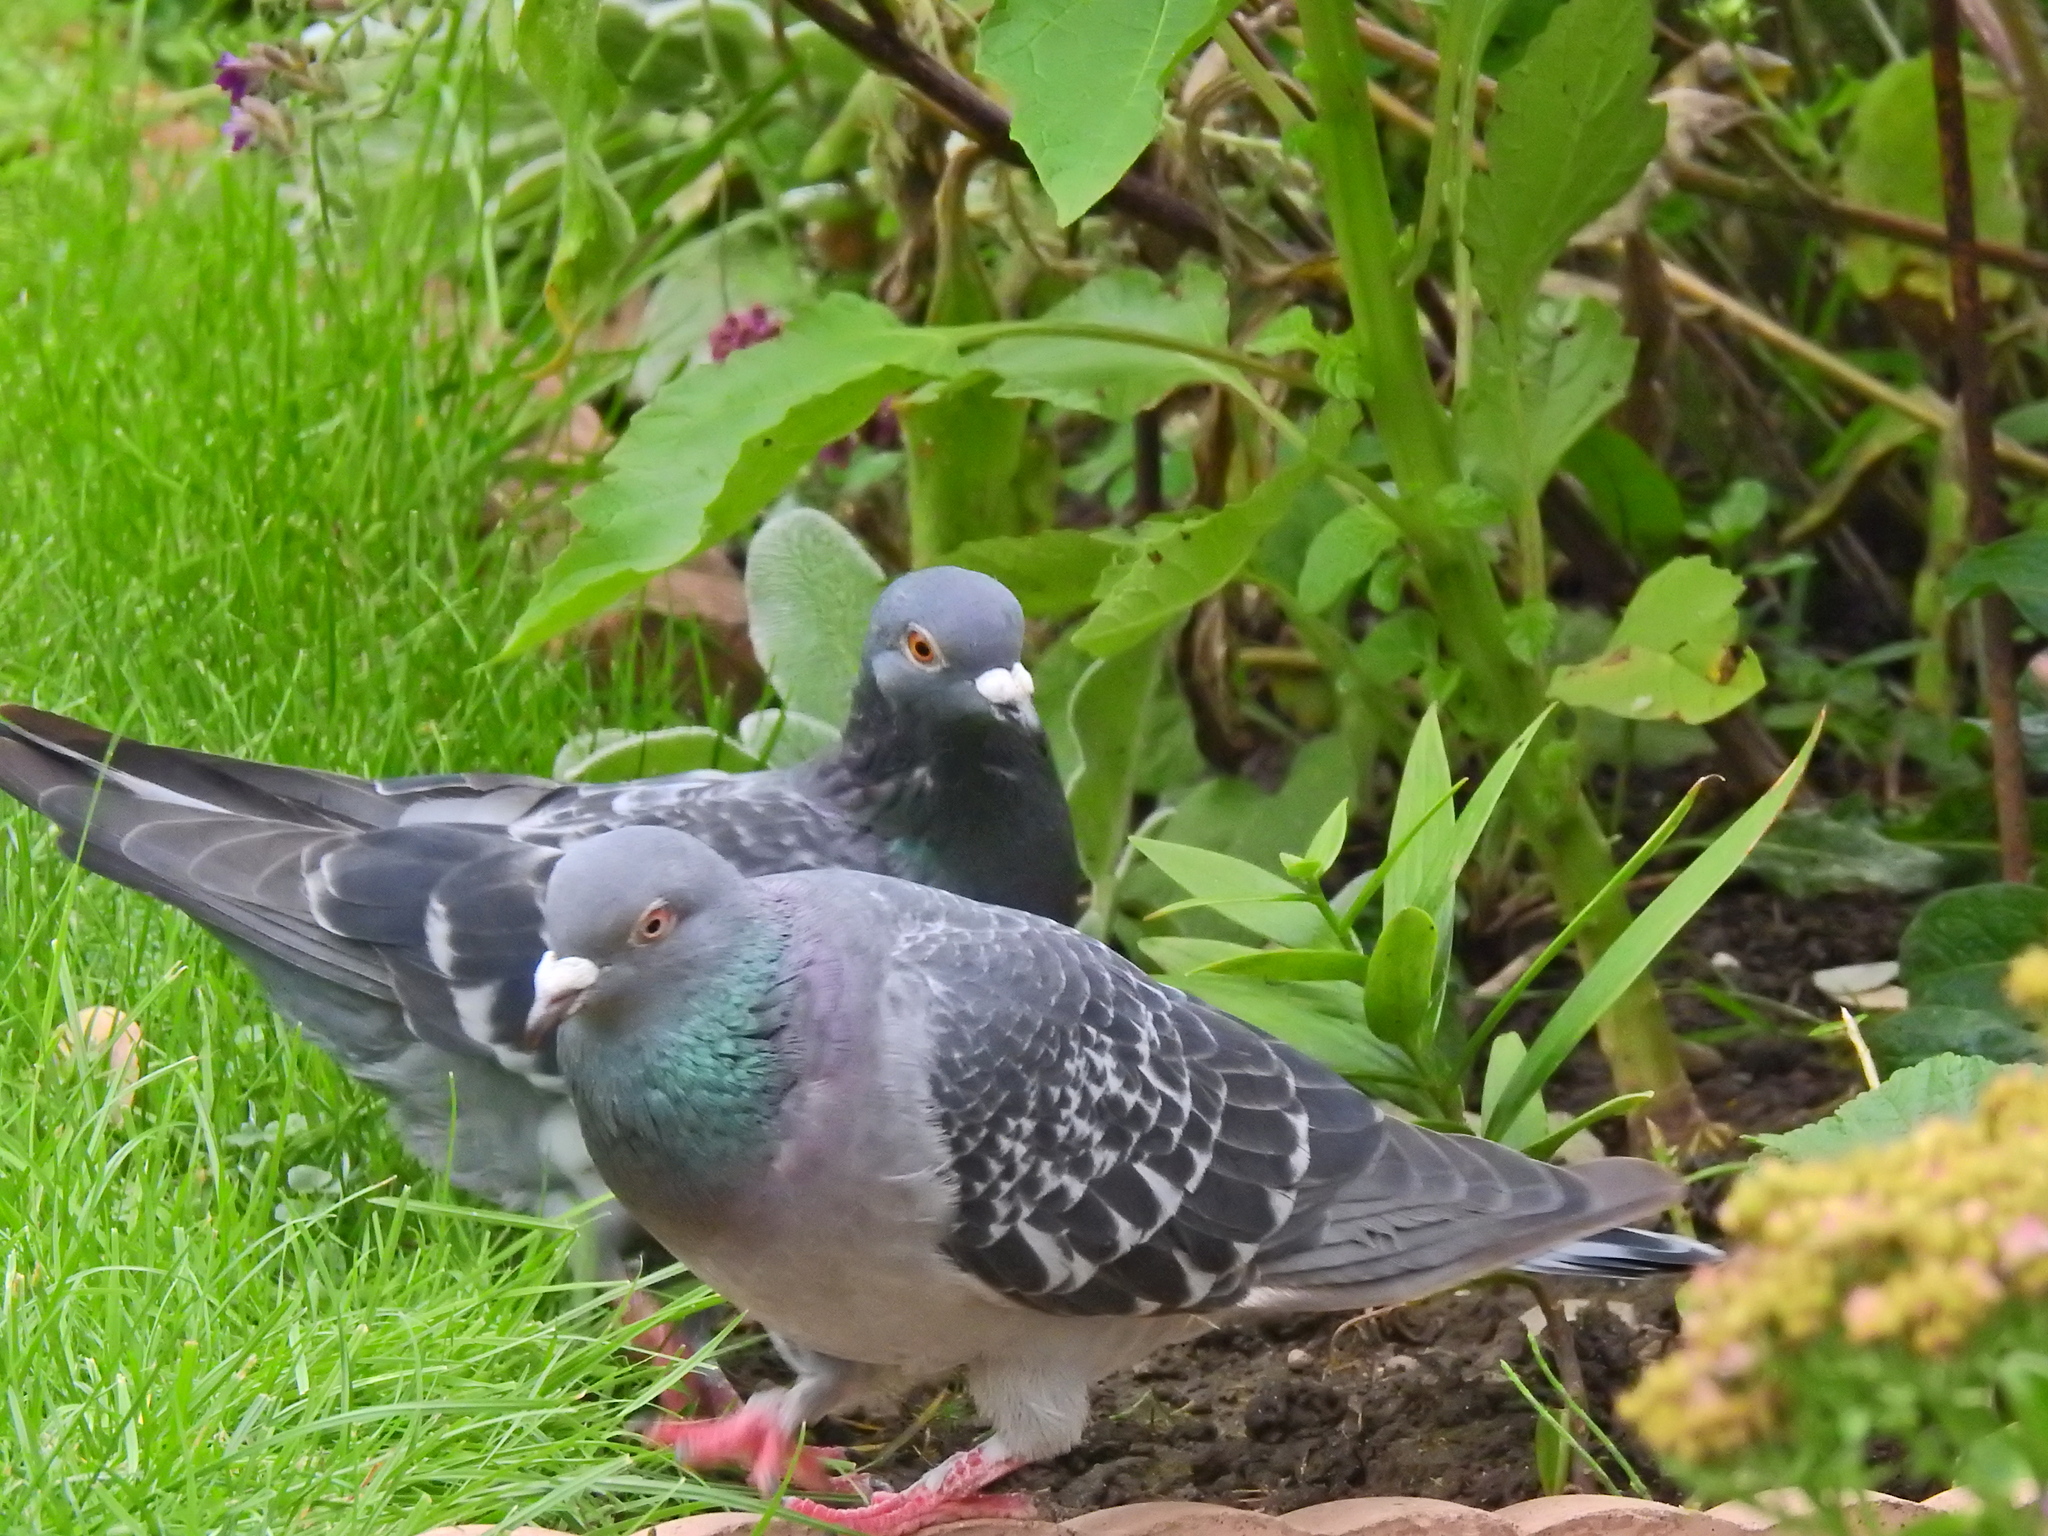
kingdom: Animalia
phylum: Chordata
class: Aves
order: Columbiformes
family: Columbidae
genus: Columba
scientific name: Columba livia
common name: Rock pigeon
